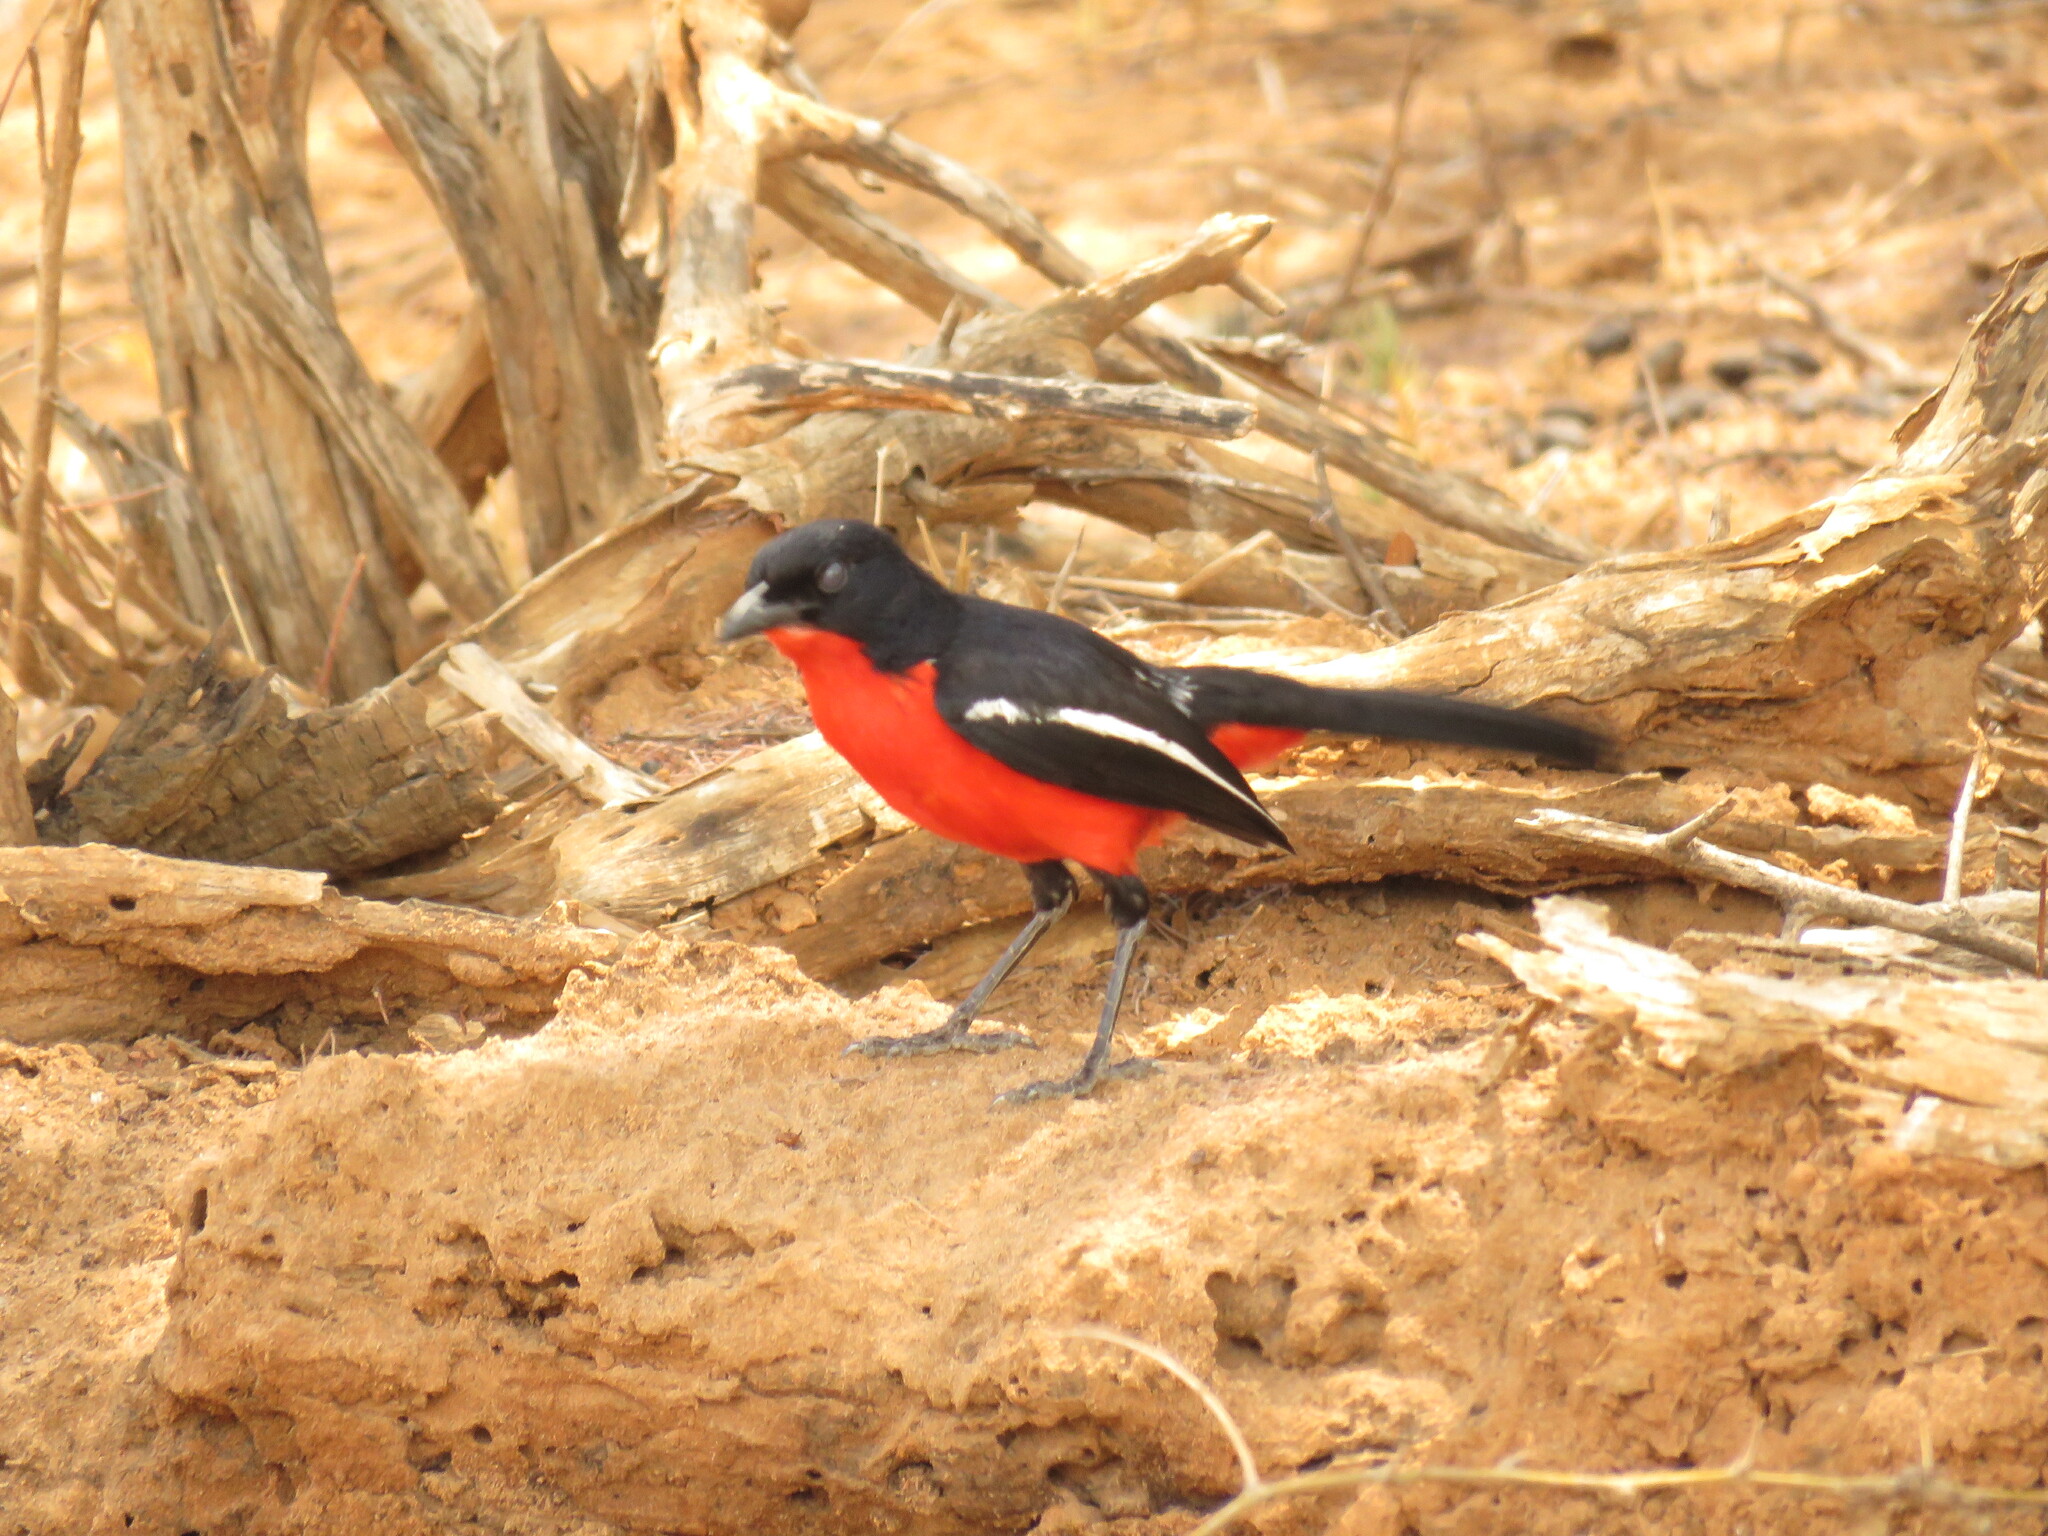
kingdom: Animalia
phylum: Chordata
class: Aves
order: Passeriformes
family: Malaconotidae
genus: Laniarius
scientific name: Laniarius atrococcineus
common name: Crimson-breasted shrike
